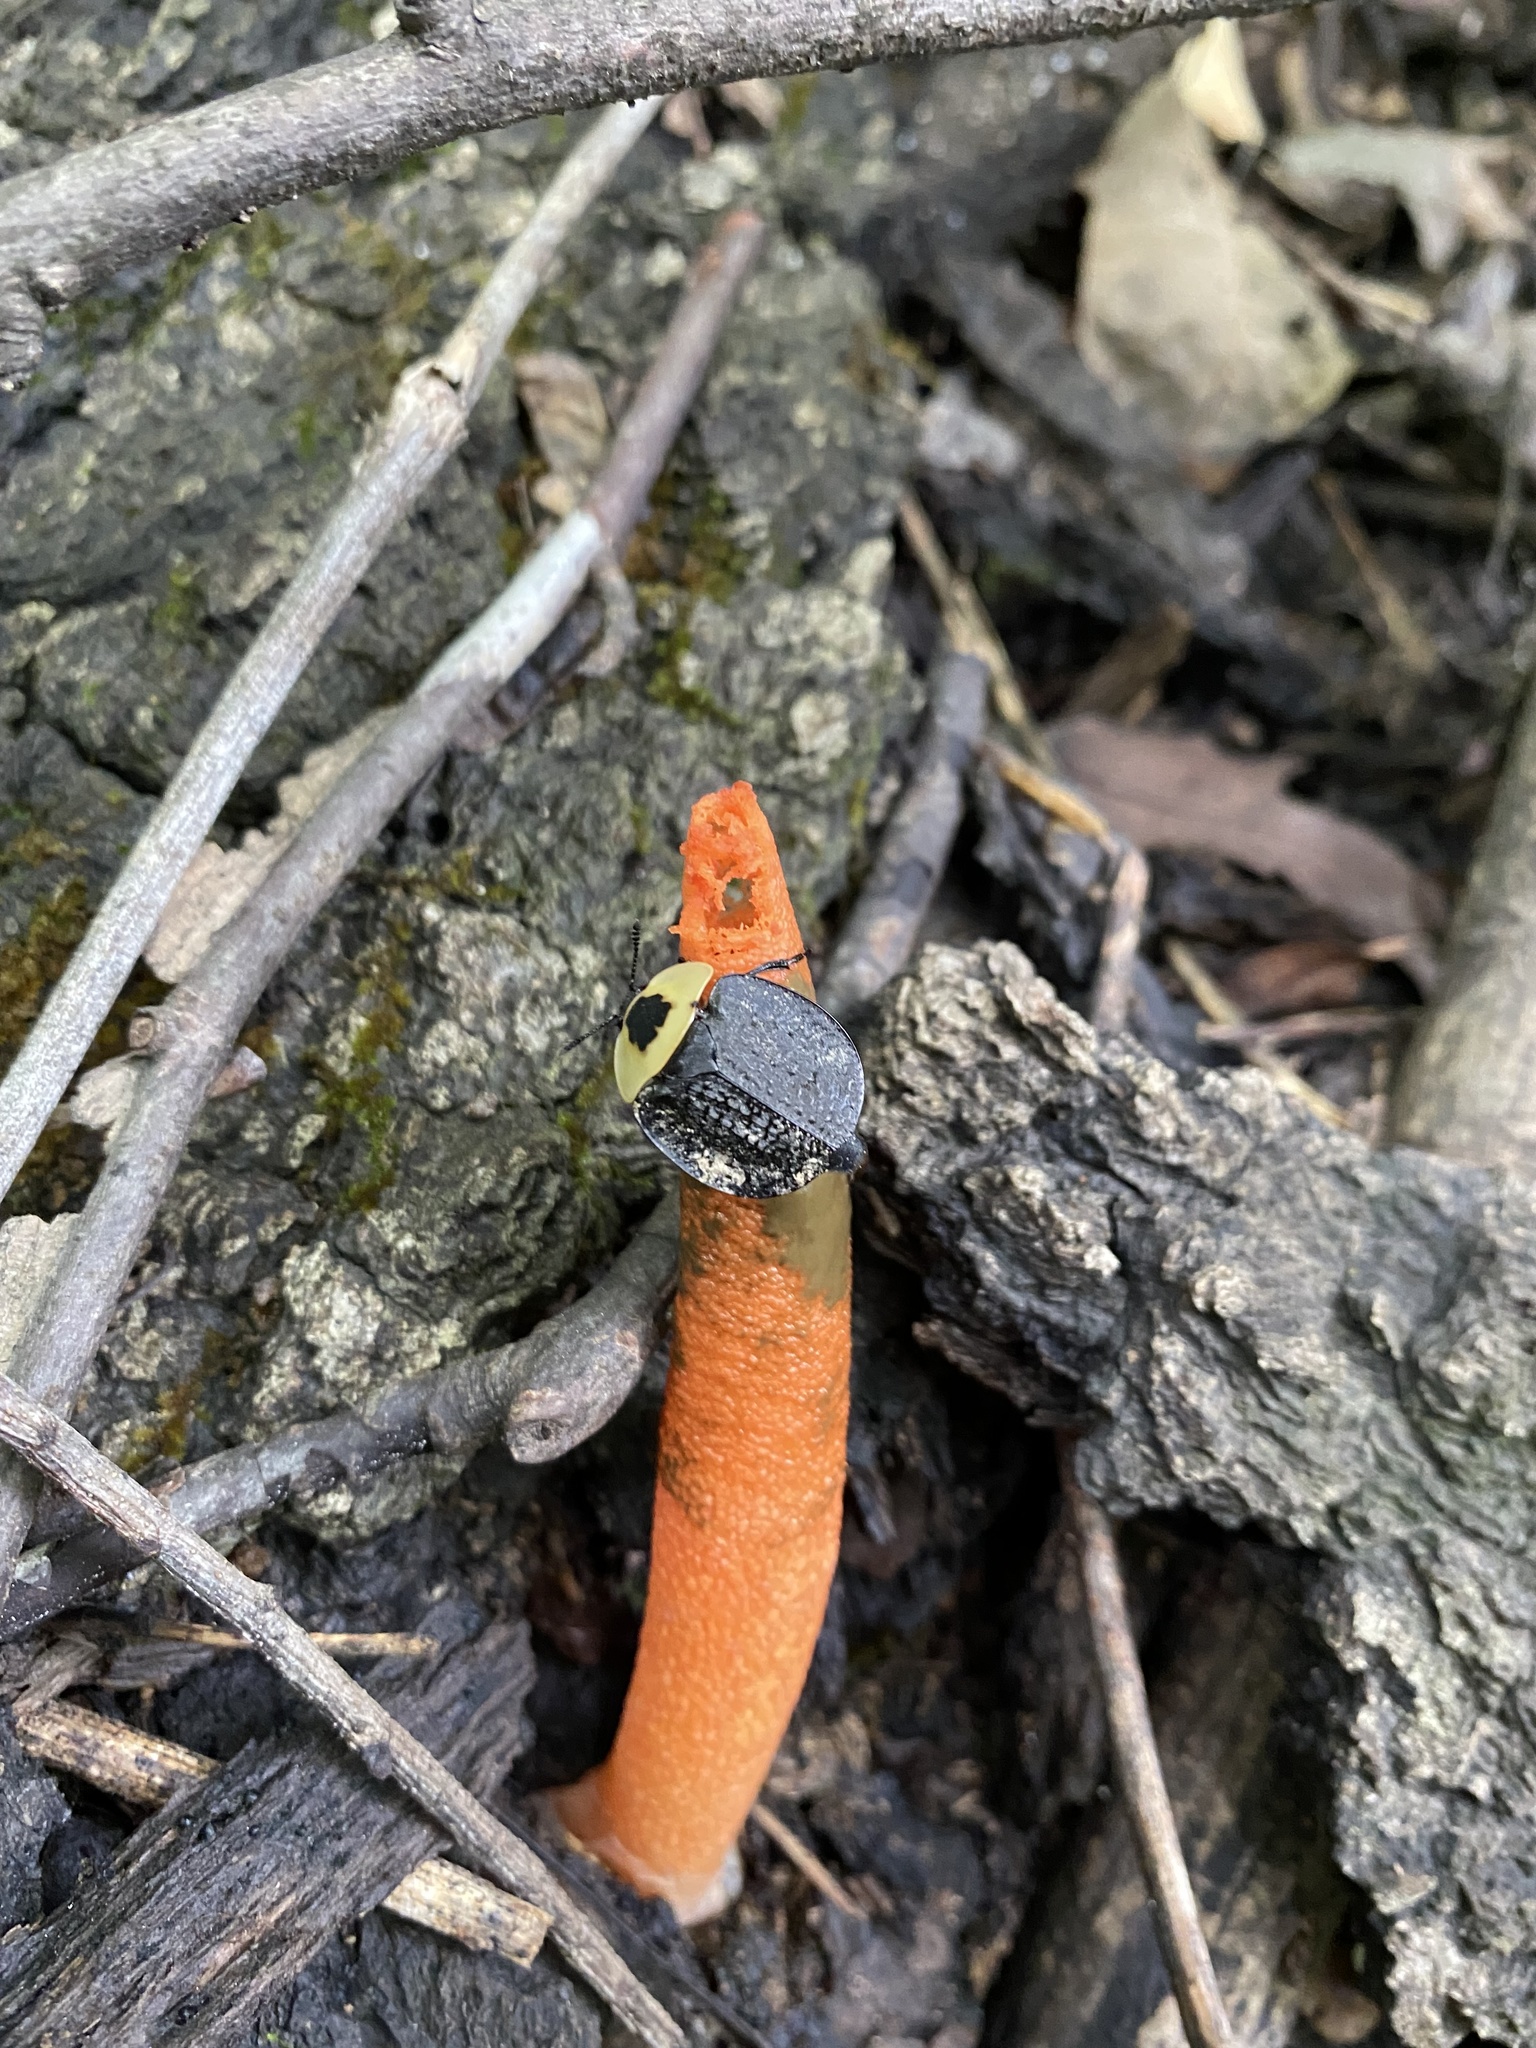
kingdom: Fungi
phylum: Basidiomycota
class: Agaricomycetes
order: Phallales
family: Phallaceae
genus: Mutinus
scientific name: Mutinus elegans
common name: Devil's dipstick
